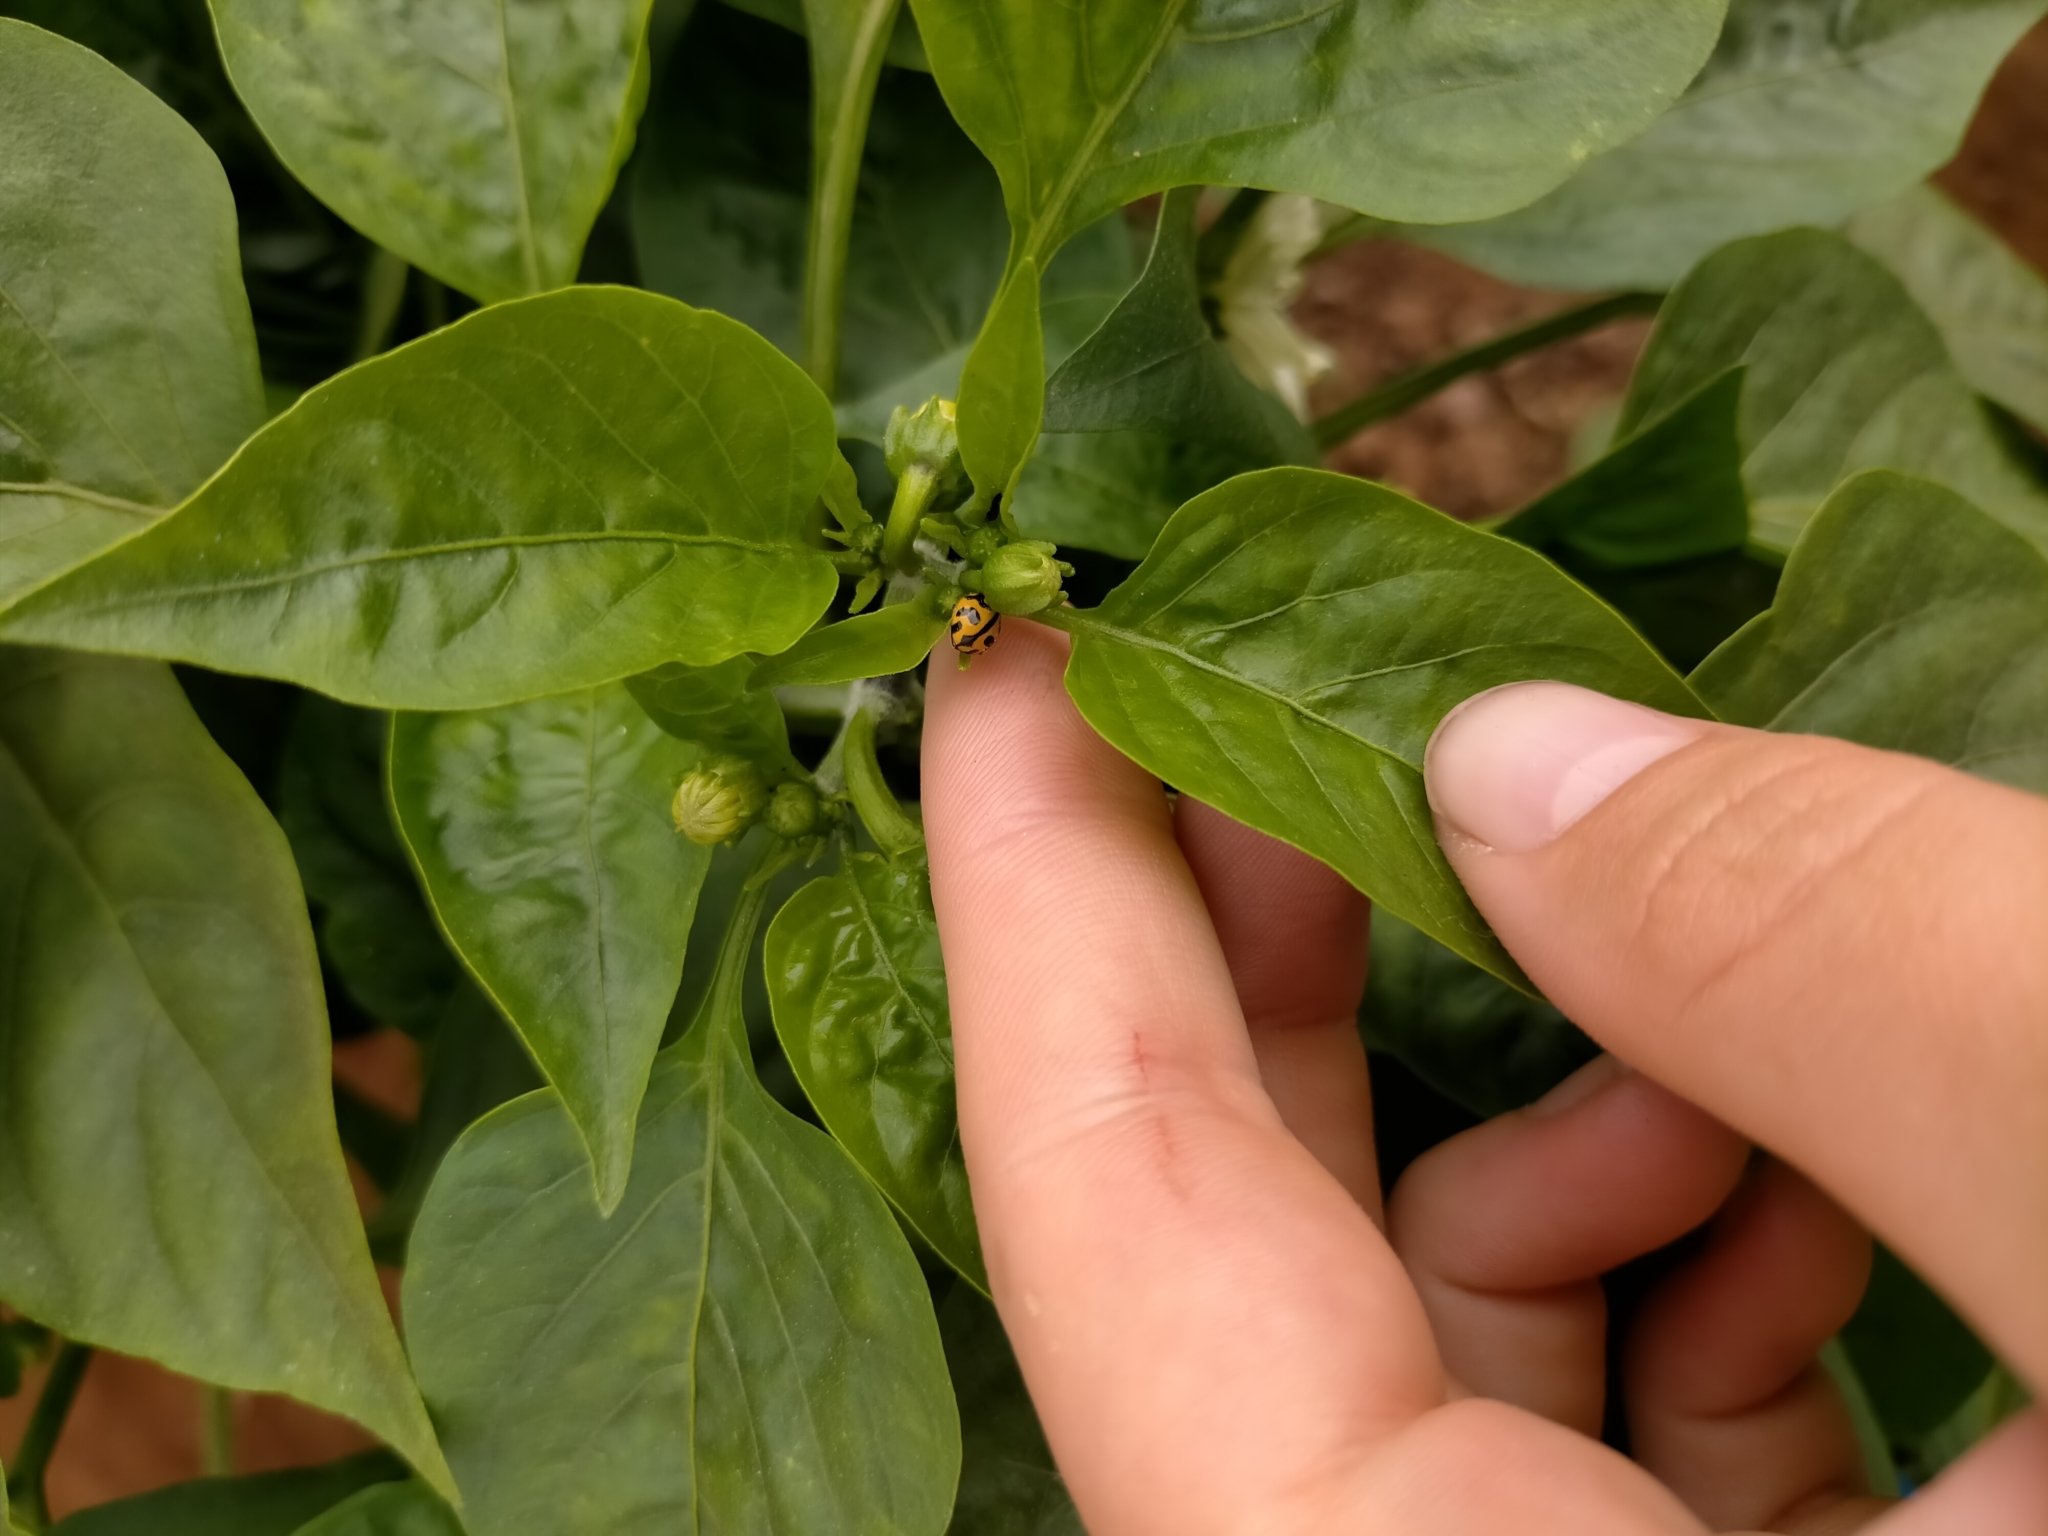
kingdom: Animalia
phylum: Arthropoda
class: Insecta
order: Coleoptera
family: Coccinellidae
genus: Coccinella
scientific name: Coccinella transversalis
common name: Transverse lady beetle
